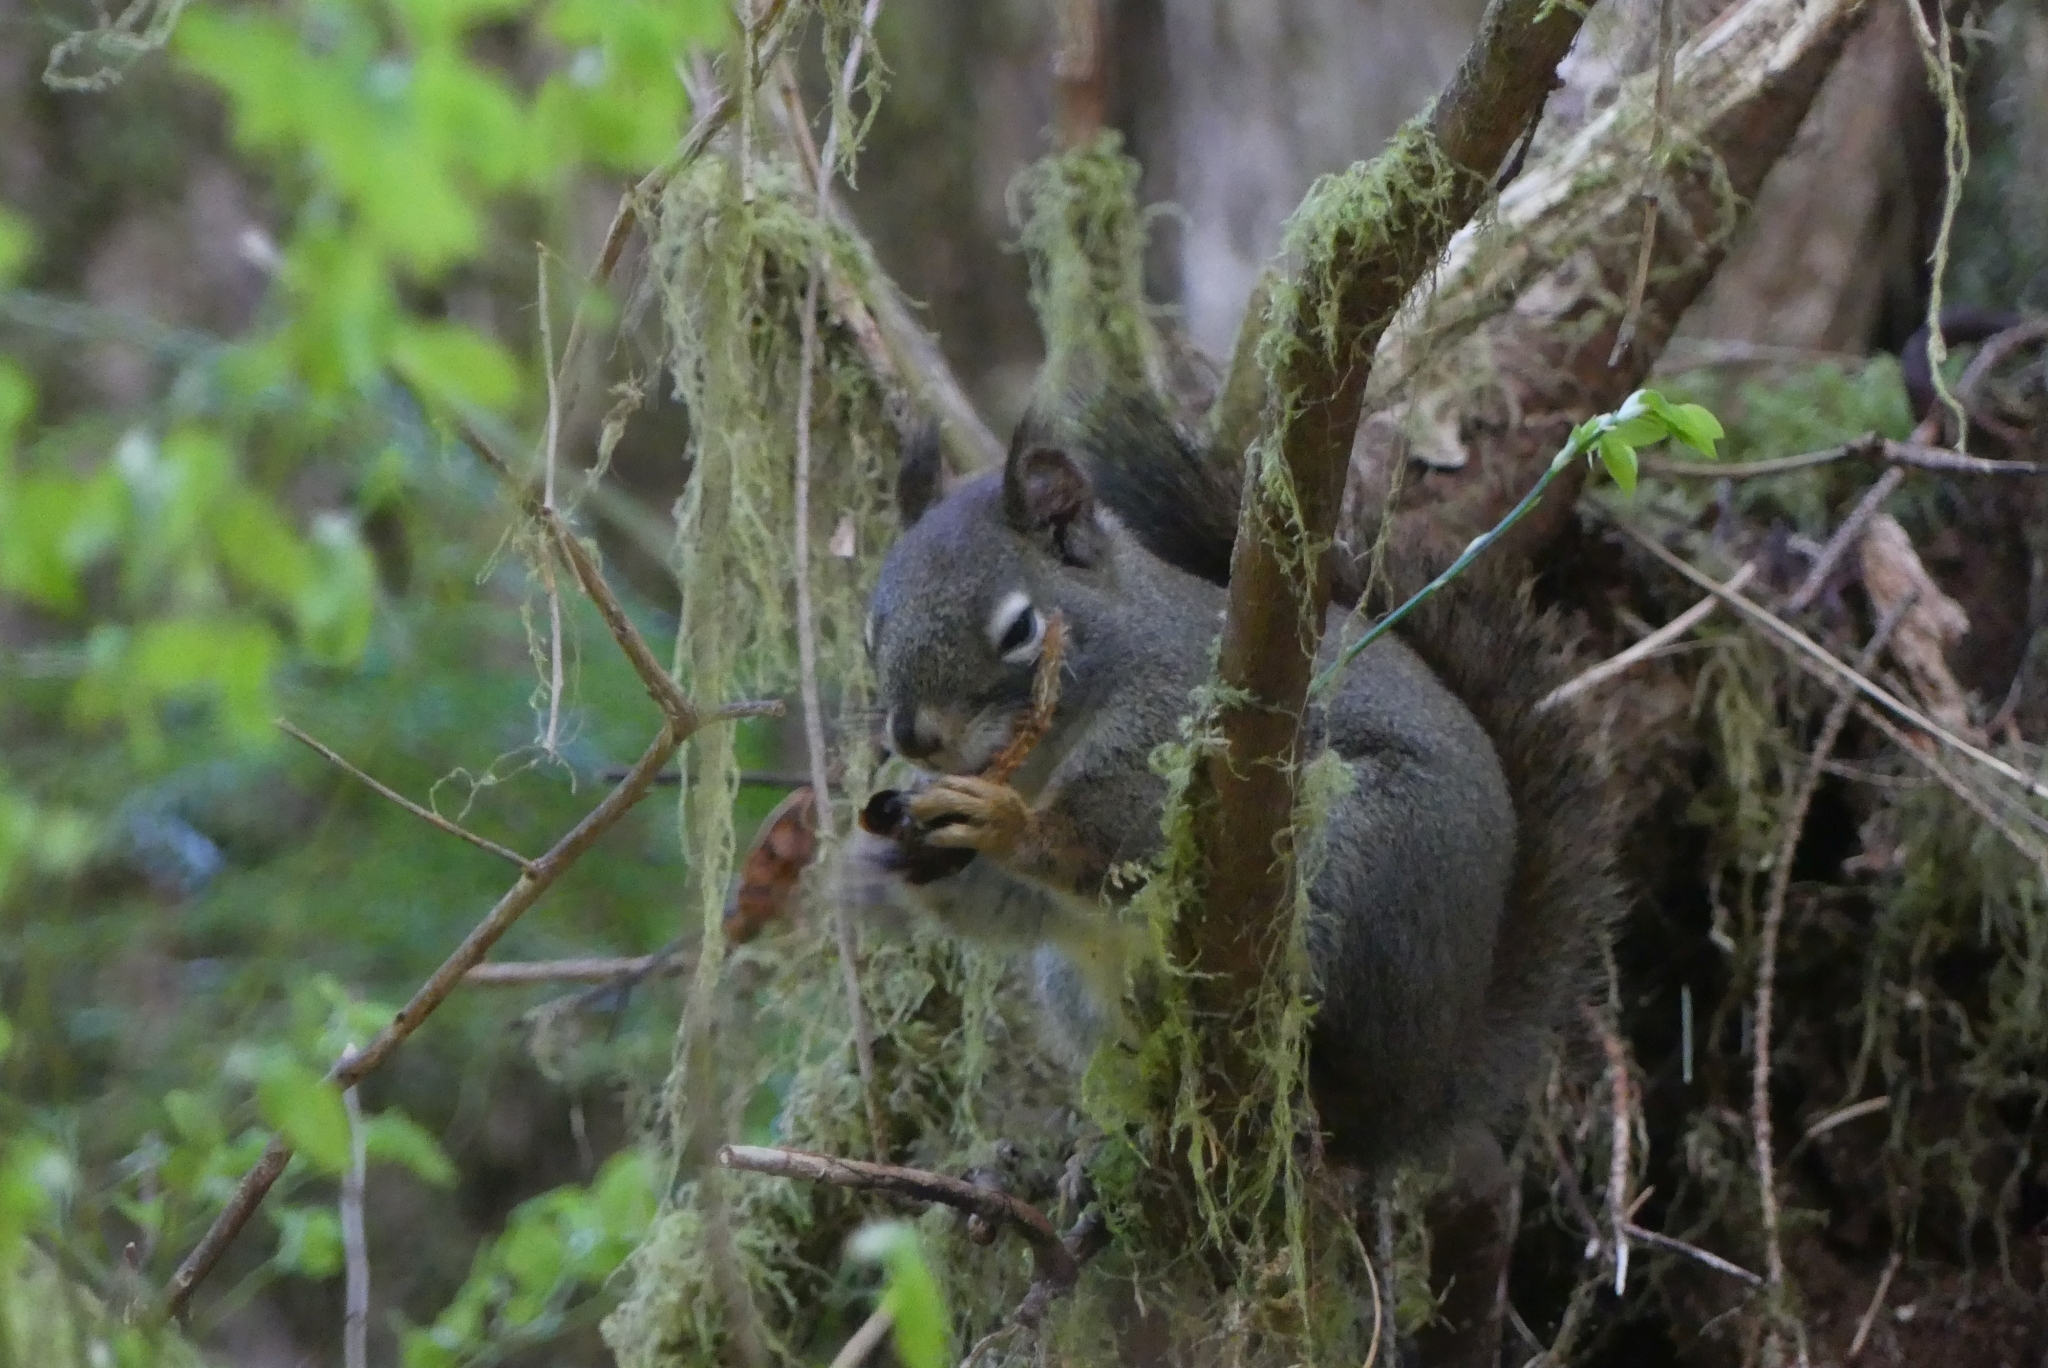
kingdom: Animalia
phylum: Chordata
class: Mammalia
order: Rodentia
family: Sciuridae
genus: Tamiasciurus
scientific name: Tamiasciurus hudsonicus
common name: Red squirrel
